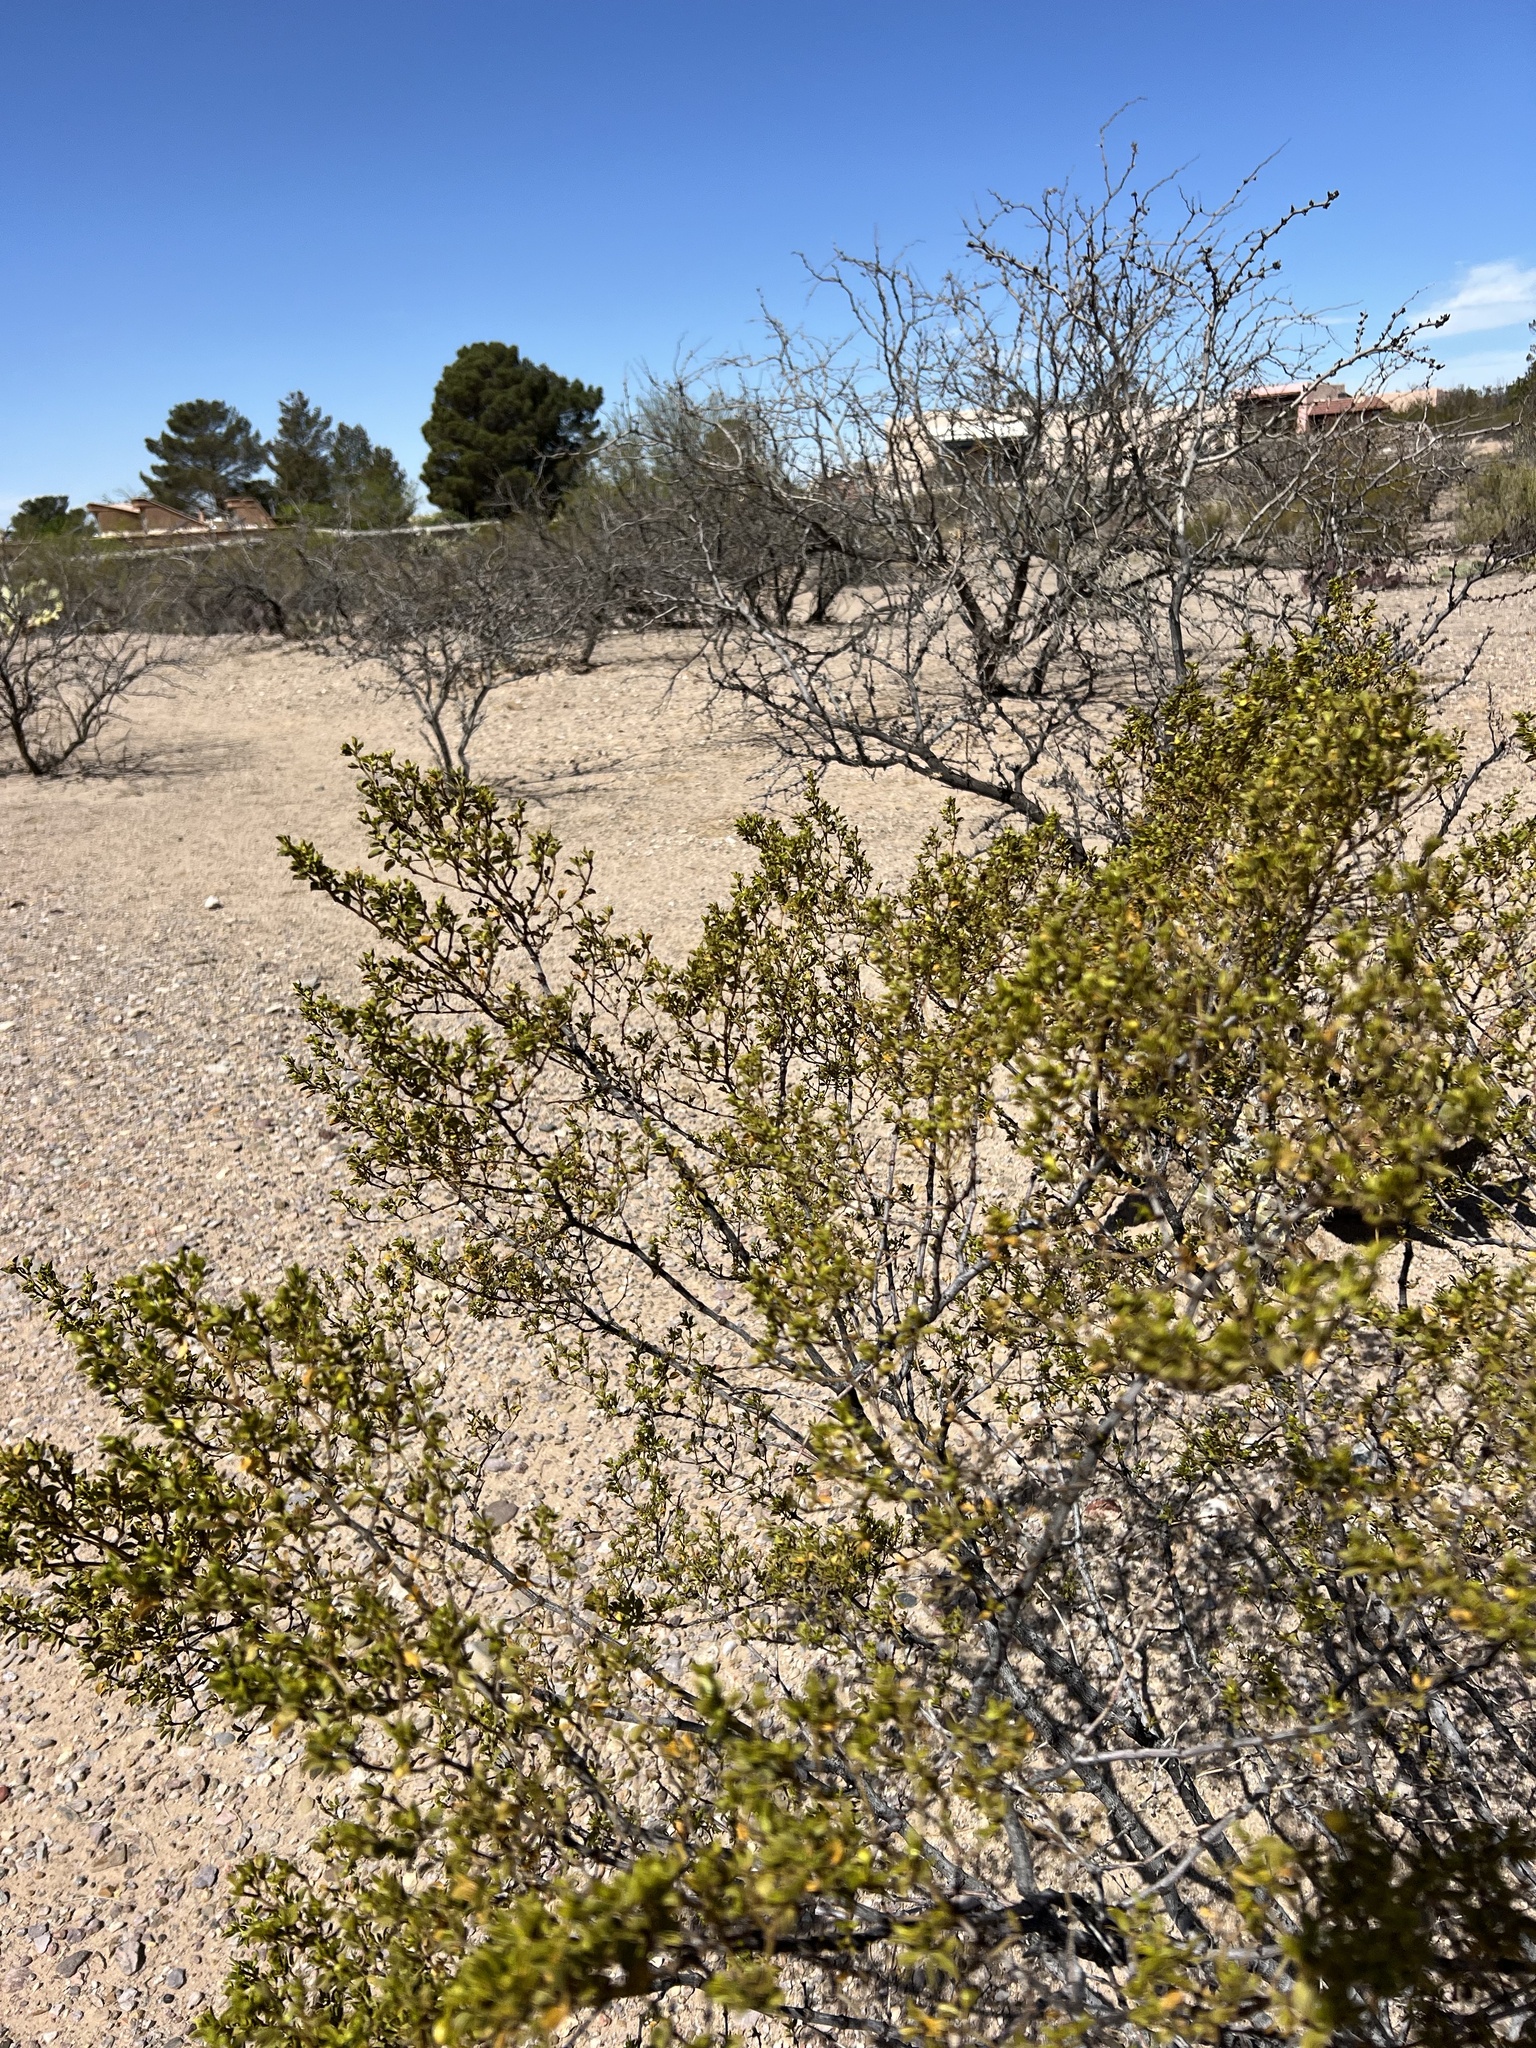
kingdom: Plantae
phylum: Tracheophyta
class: Magnoliopsida
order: Zygophyllales
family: Zygophyllaceae
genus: Larrea
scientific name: Larrea tridentata
